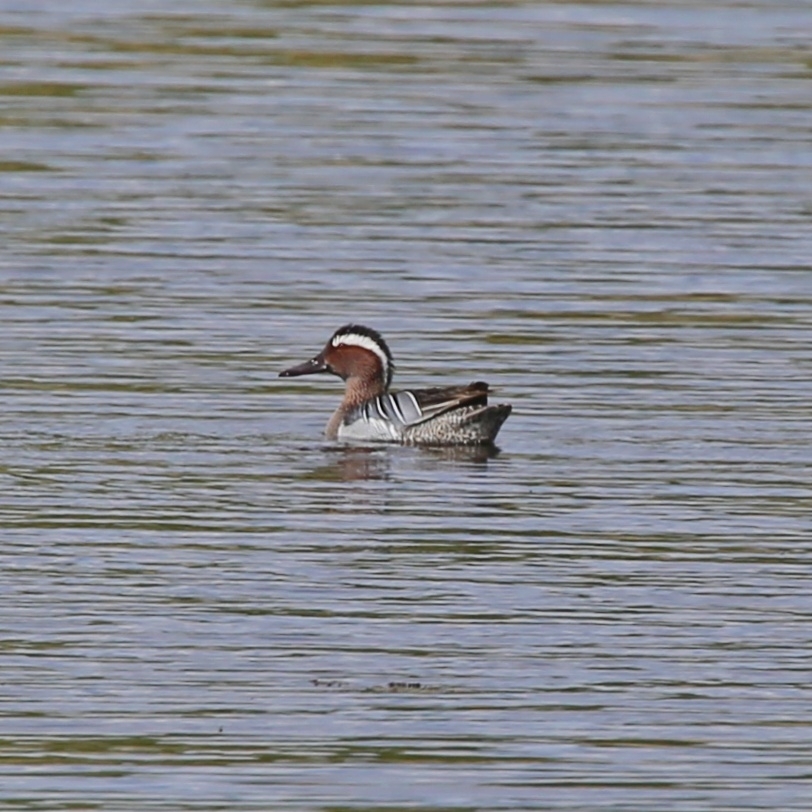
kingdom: Animalia
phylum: Chordata
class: Aves
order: Anseriformes
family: Anatidae
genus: Spatula
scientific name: Spatula querquedula
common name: Garganey
